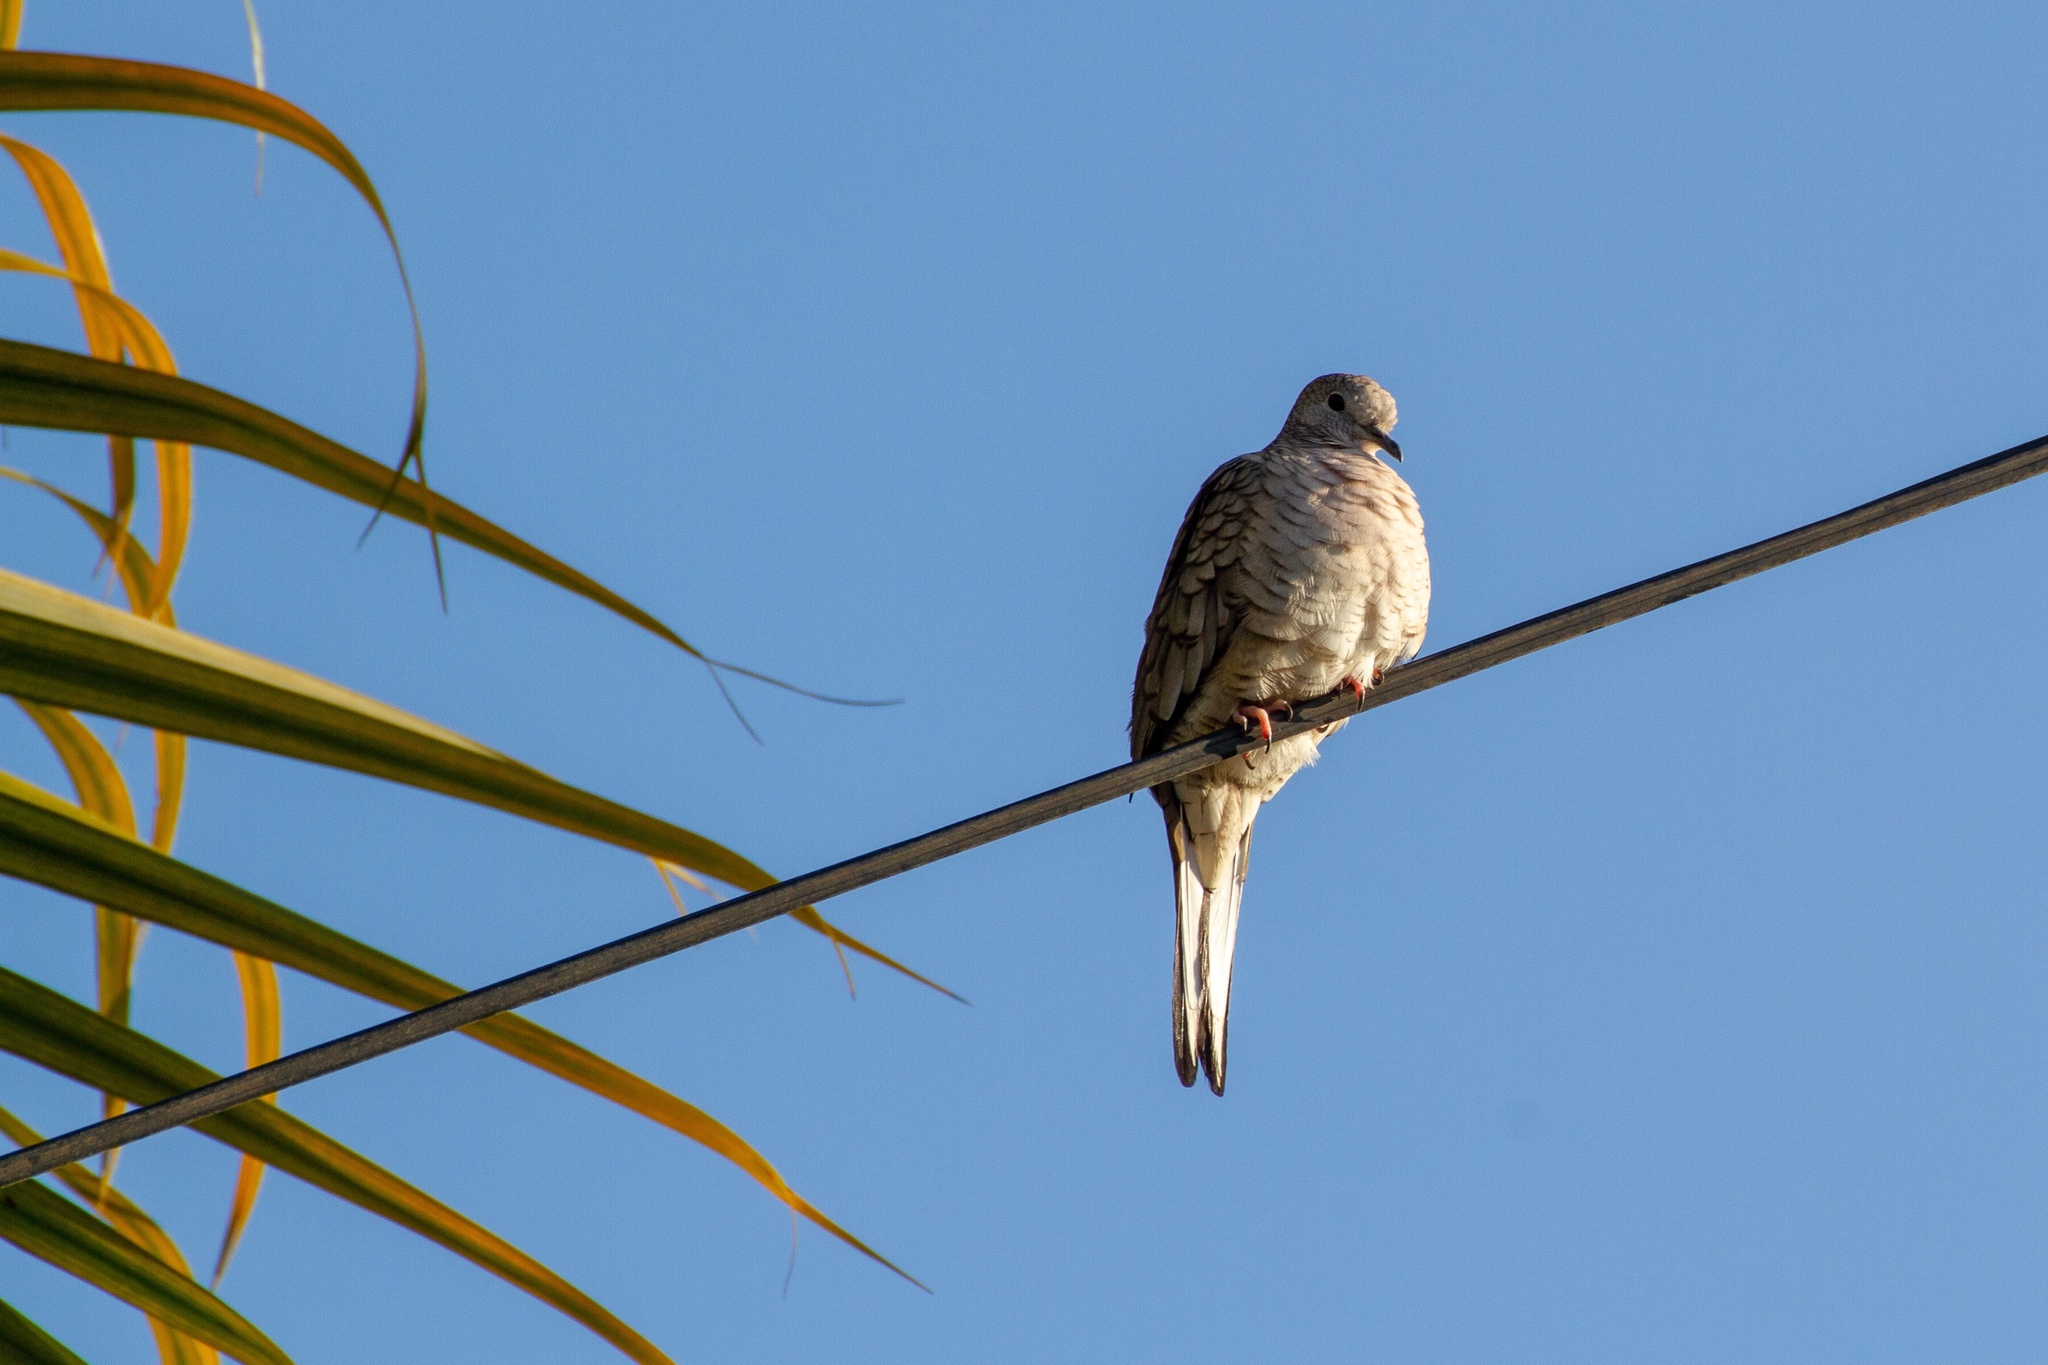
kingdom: Animalia
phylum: Chordata
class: Aves
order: Columbiformes
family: Columbidae
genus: Columbina
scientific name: Columbina inca
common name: Inca dove
